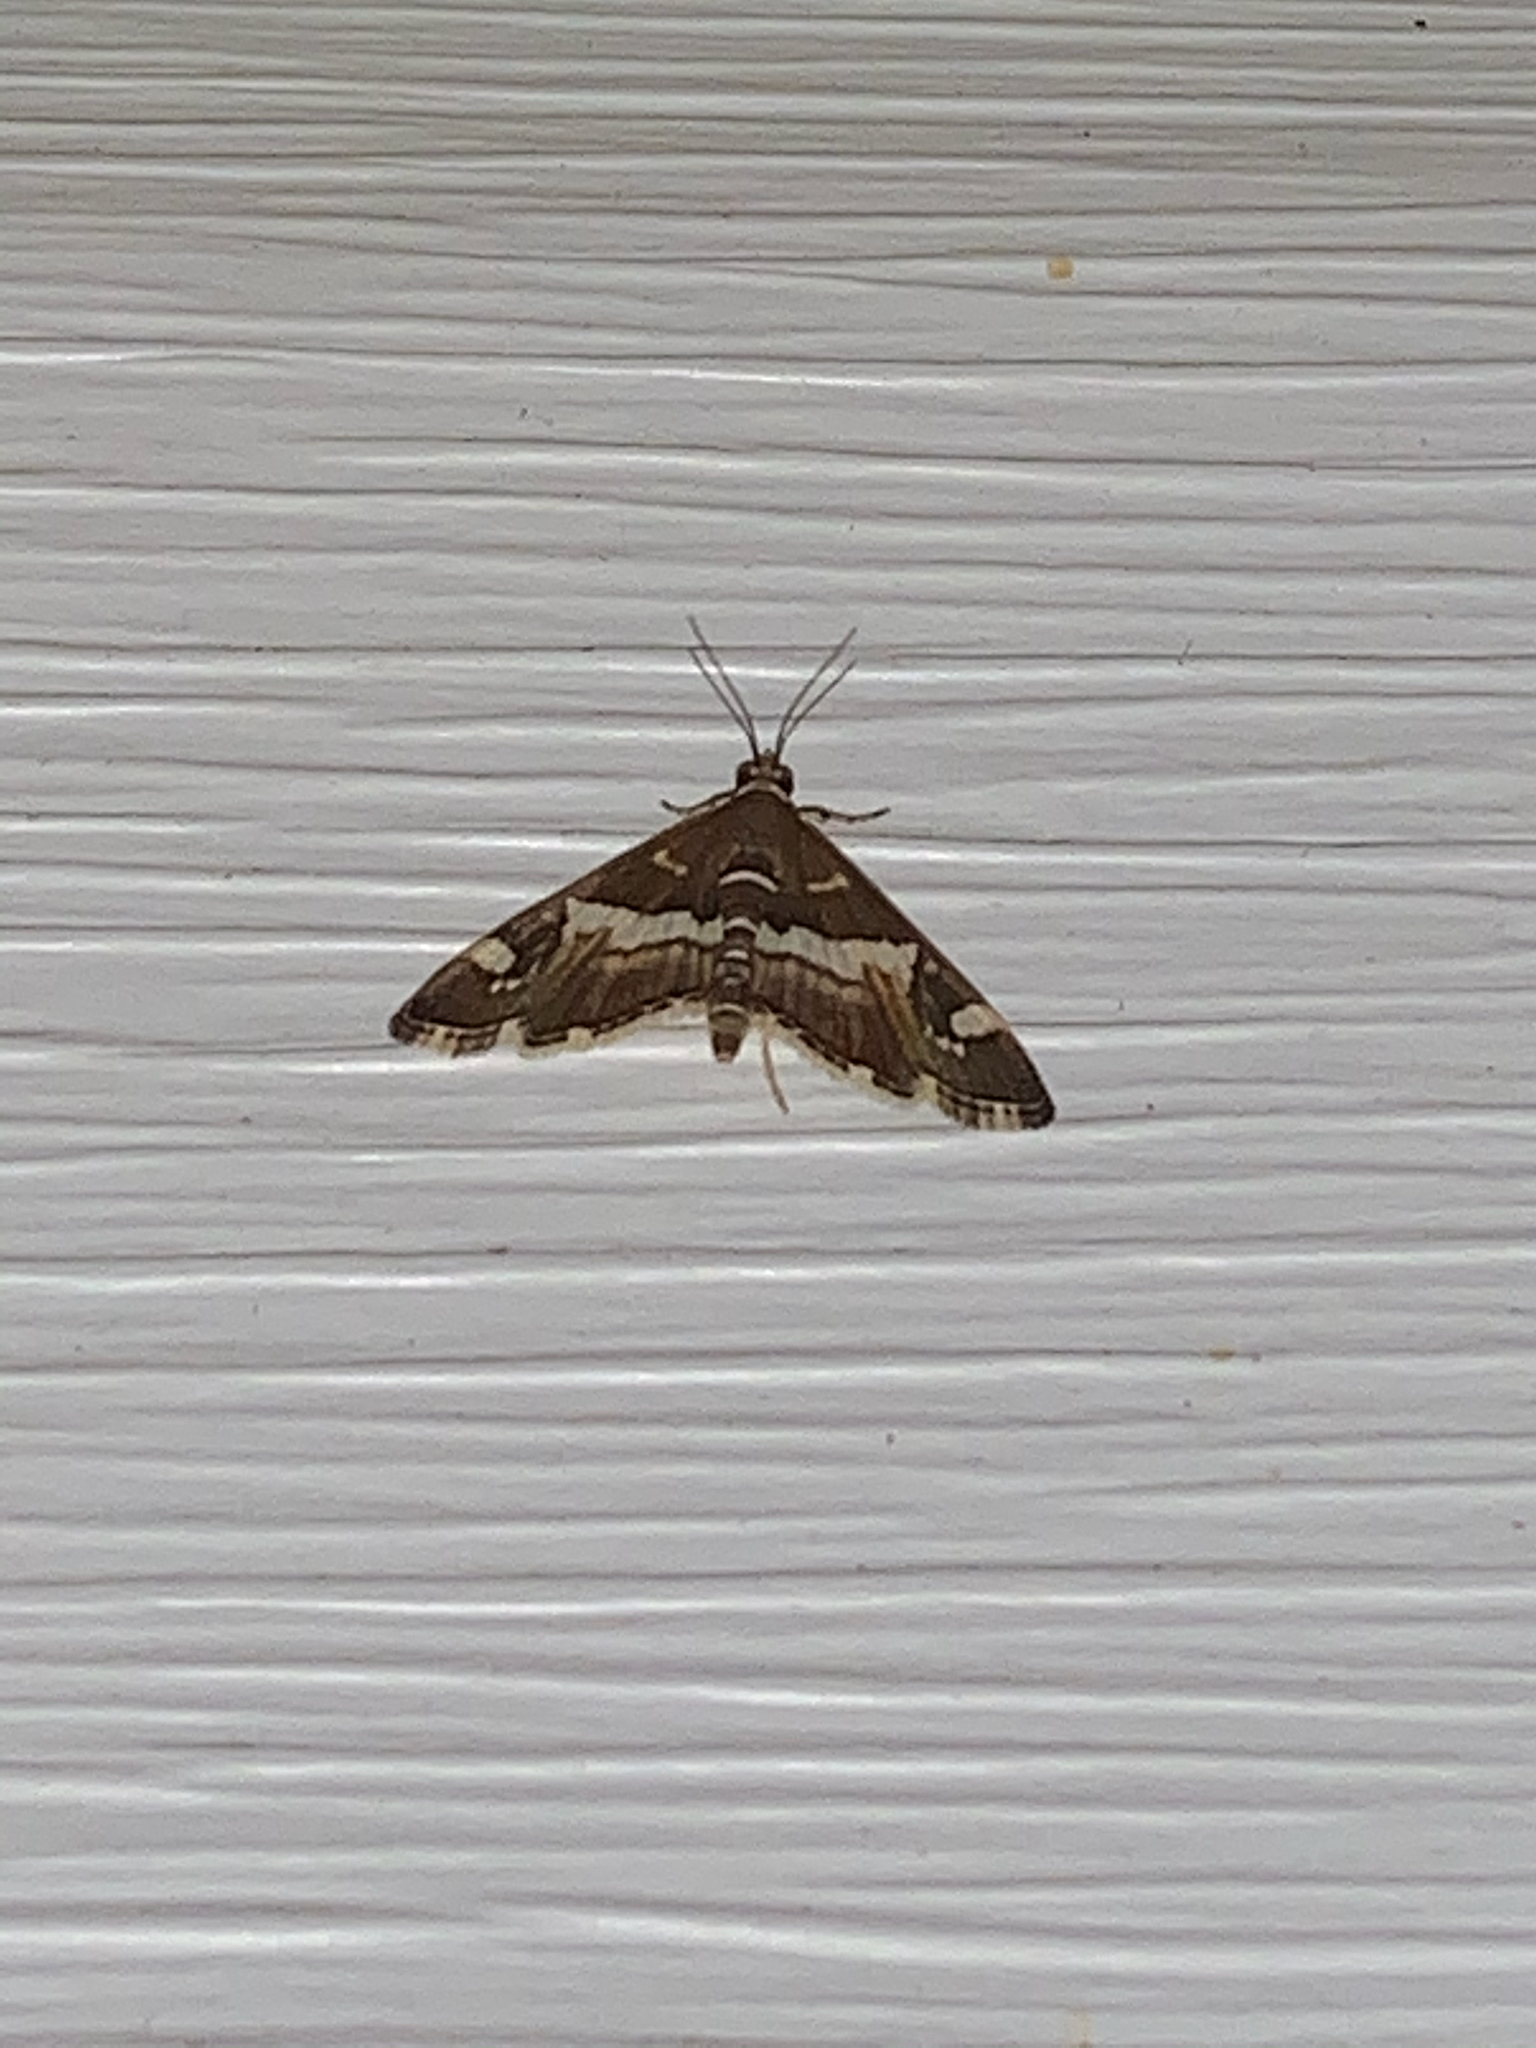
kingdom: Animalia
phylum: Arthropoda
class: Insecta
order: Lepidoptera
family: Crambidae
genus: Spoladea
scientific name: Spoladea recurvalis
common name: Beet webworm moth
